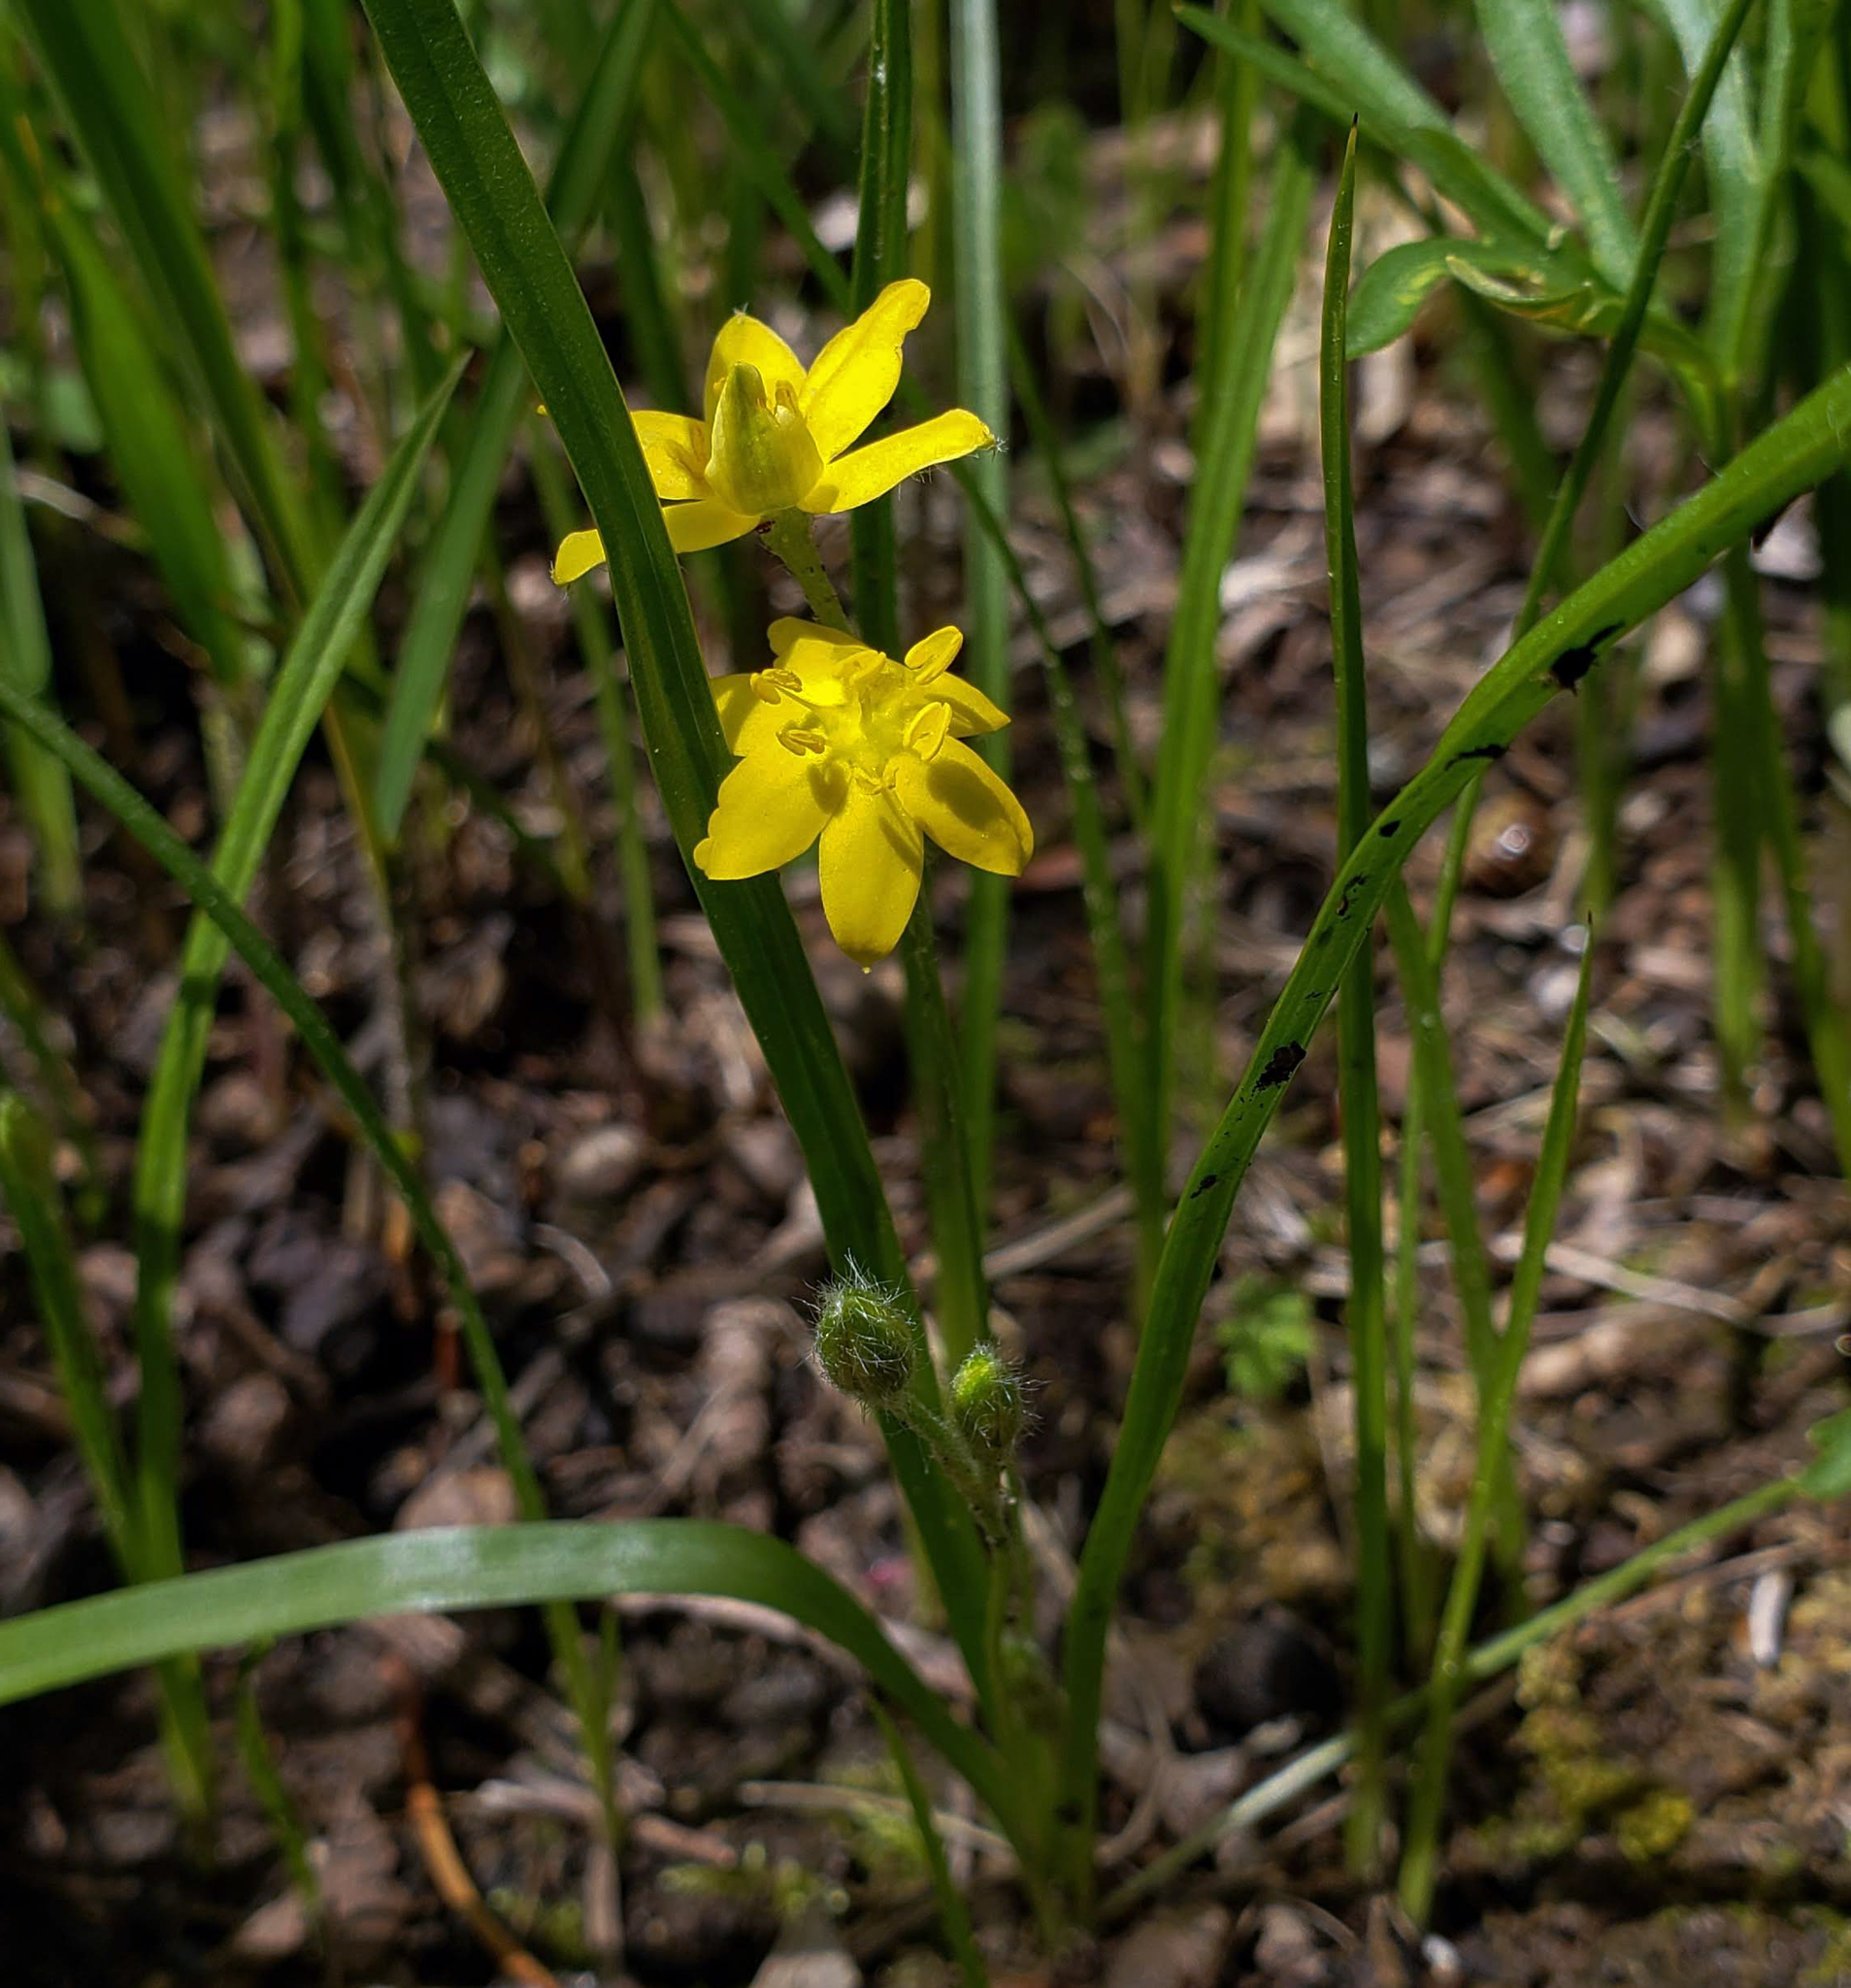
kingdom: Plantae
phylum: Tracheophyta
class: Liliopsida
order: Asparagales
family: Hypoxidaceae
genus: Hypoxis
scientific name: Hypoxis hirsuta
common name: Common goldstar
